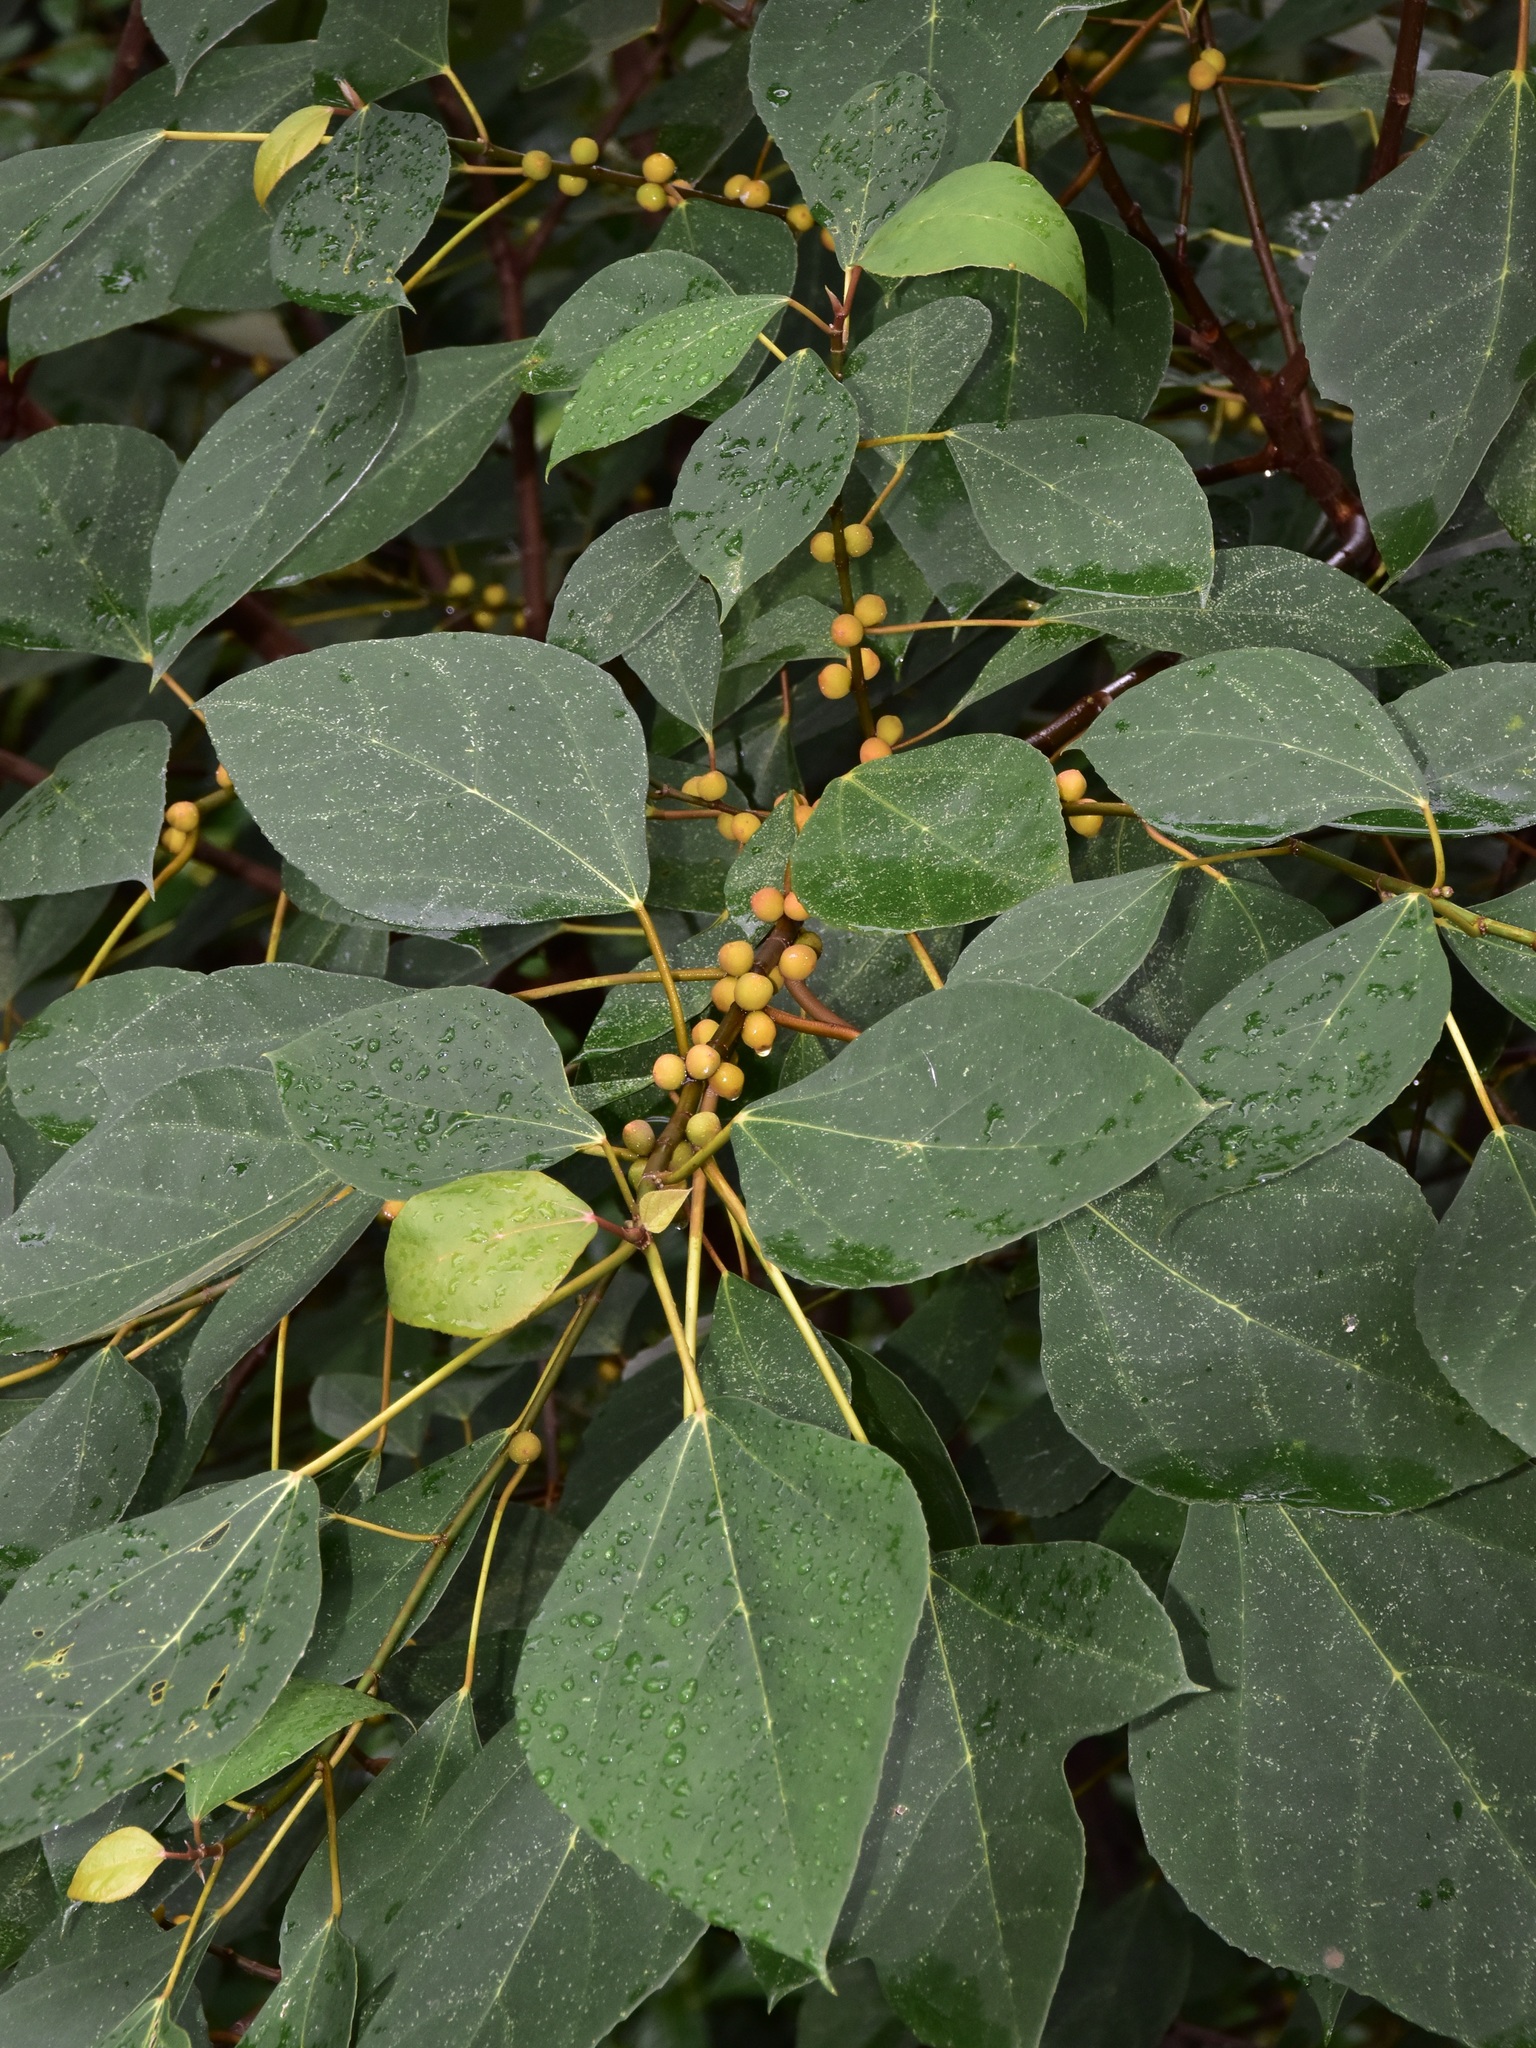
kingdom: Plantae
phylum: Tracheophyta
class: Magnoliopsida
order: Rosales
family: Moraceae
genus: Ficus
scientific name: Ficus grossularioides
